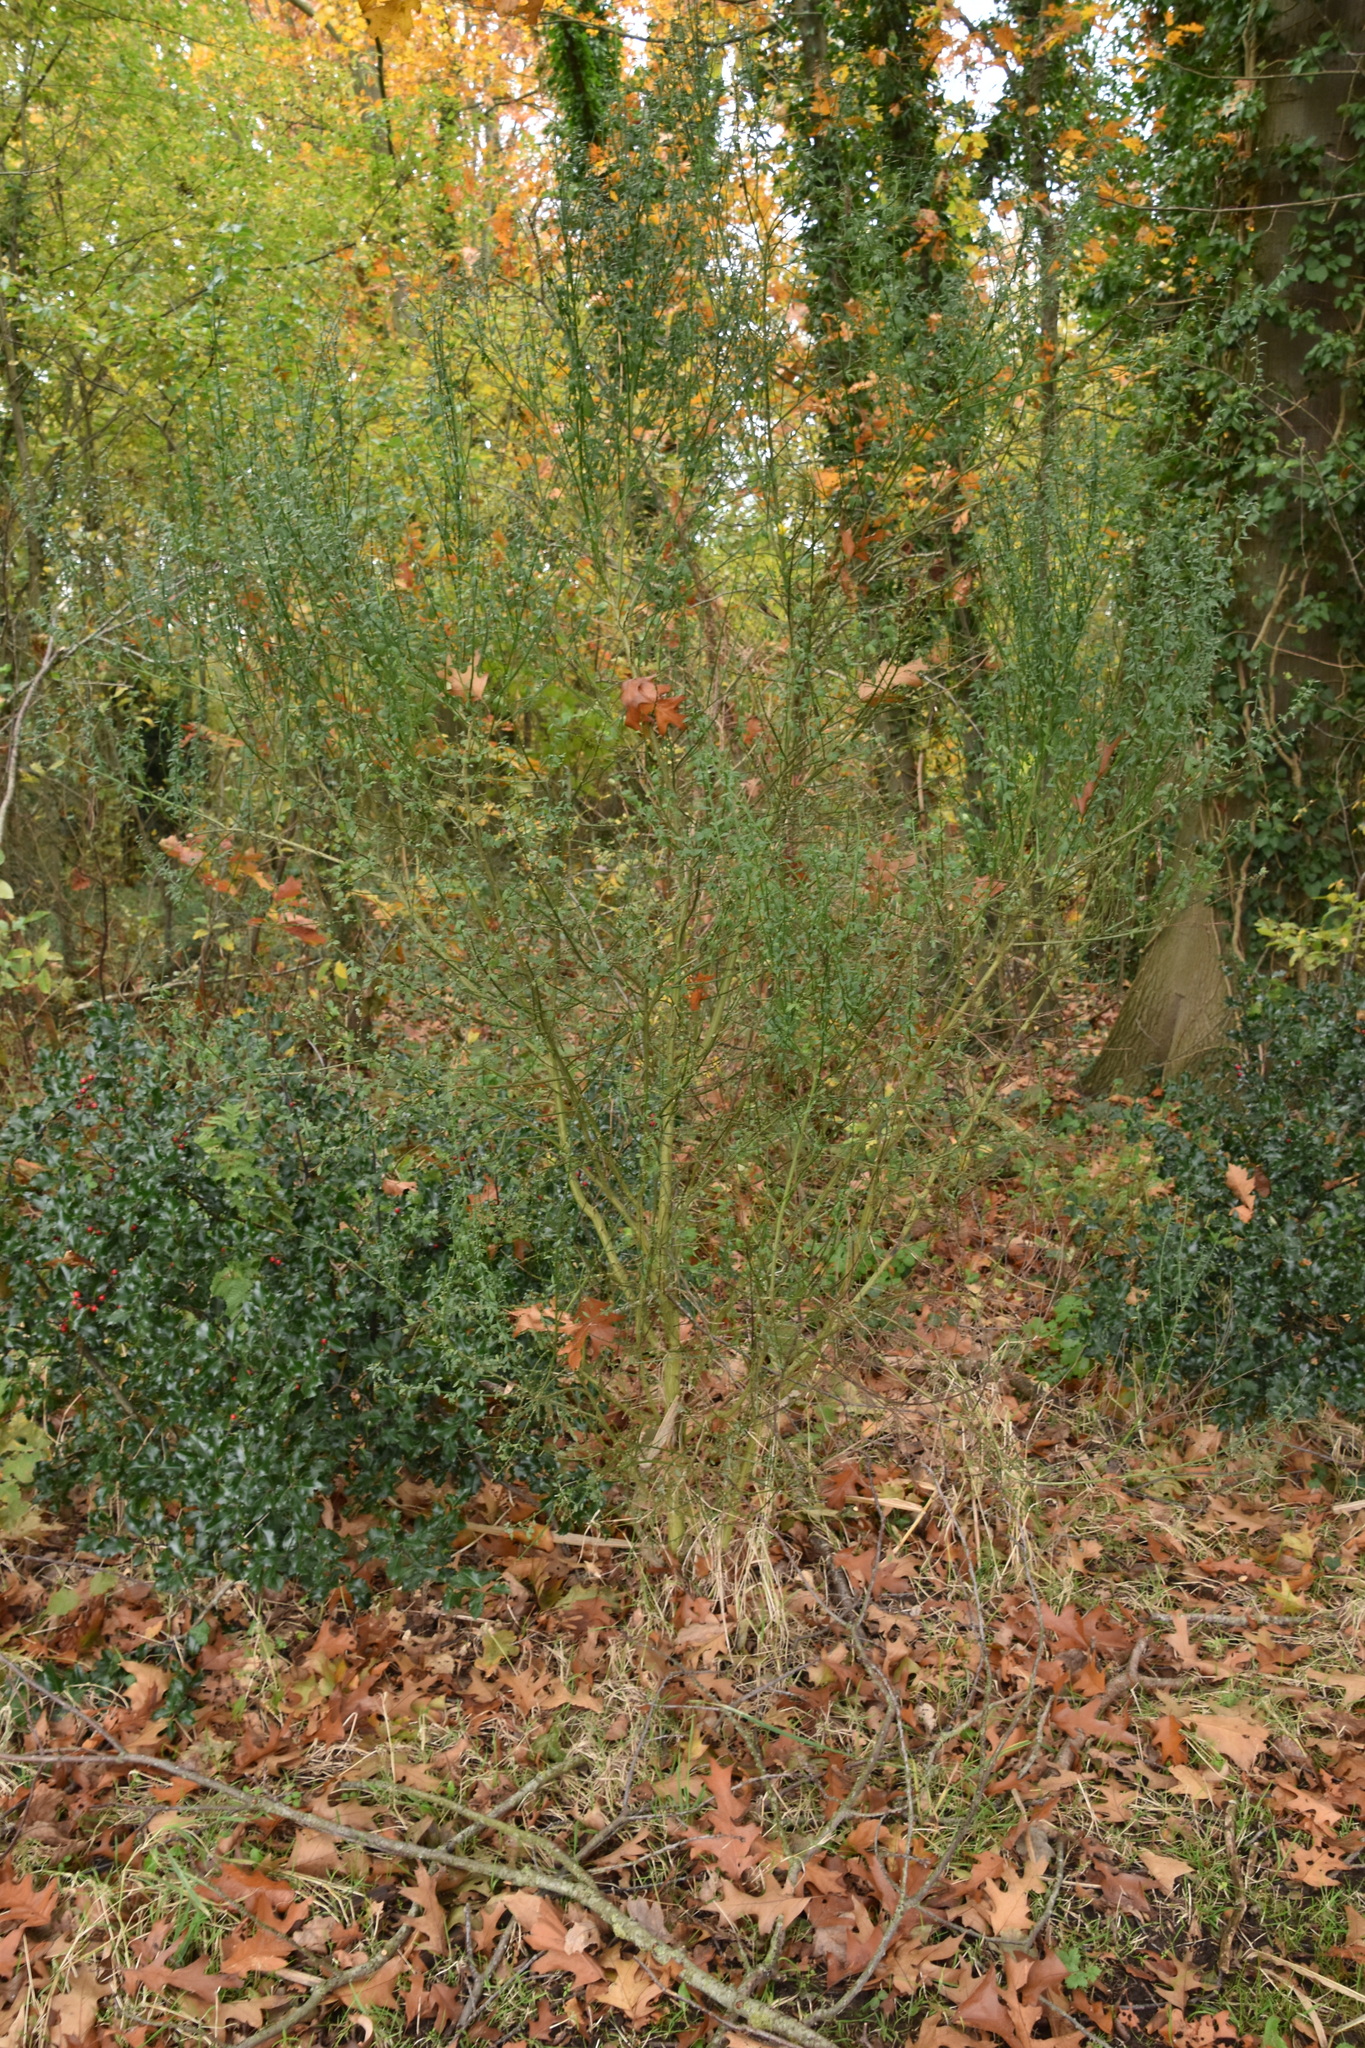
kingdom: Plantae
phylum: Tracheophyta
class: Magnoliopsida
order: Fabales
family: Fabaceae
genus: Cytisus
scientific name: Cytisus scoparius
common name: Scotch broom
